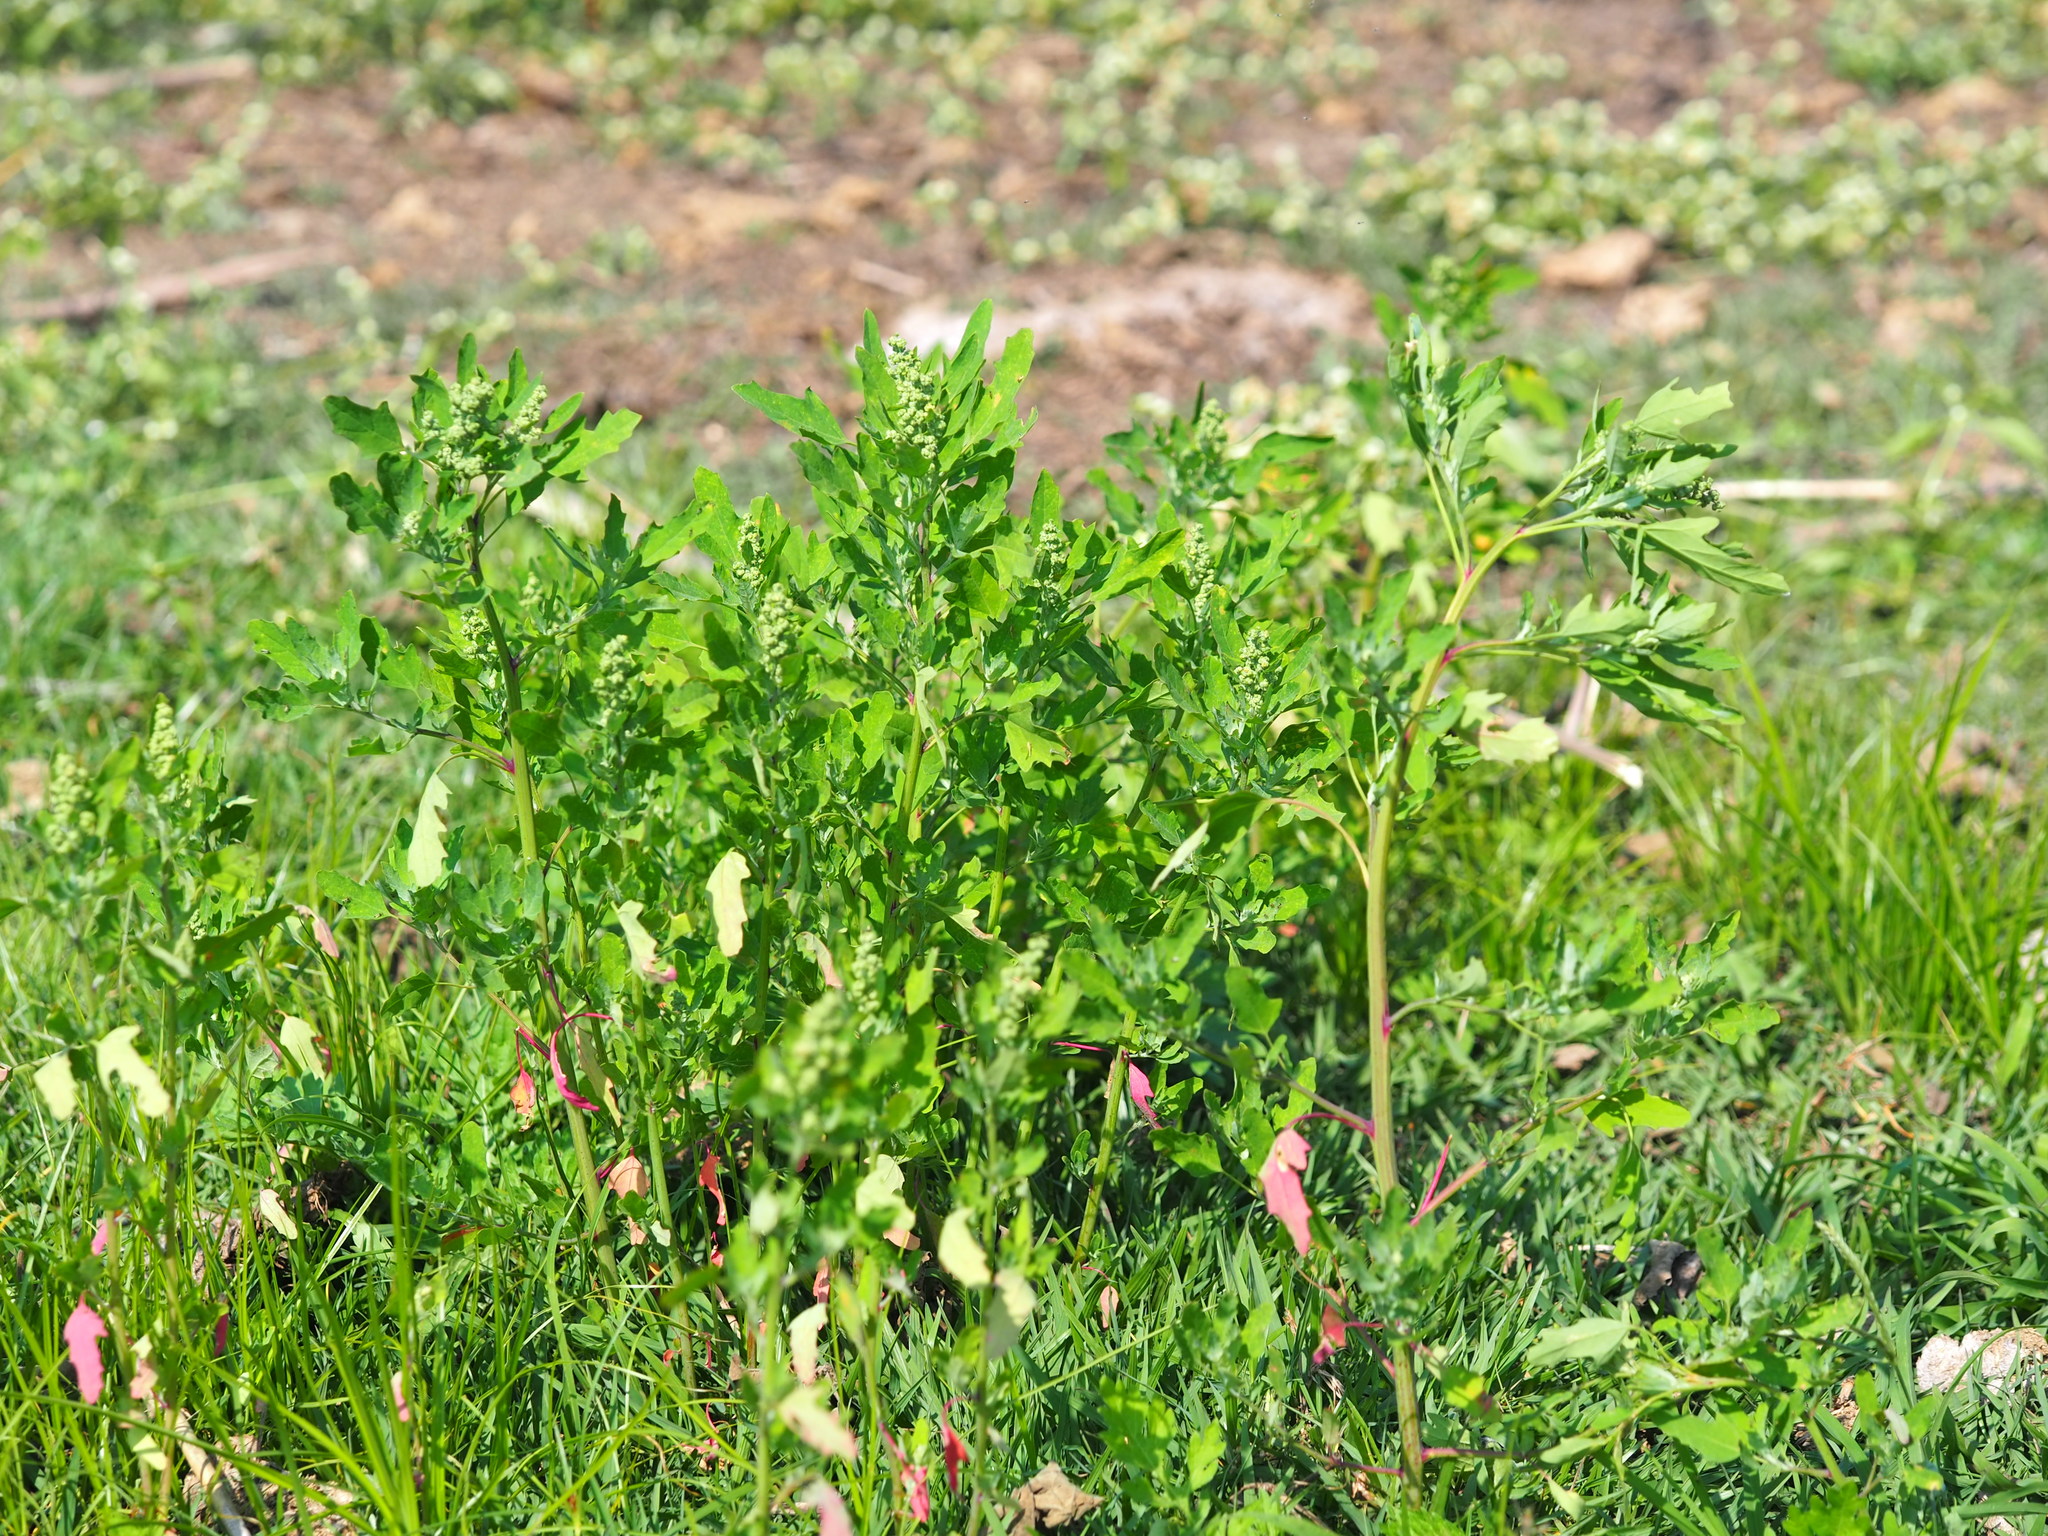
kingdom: Plantae
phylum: Tracheophyta
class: Magnoliopsida
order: Caryophyllales
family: Amaranthaceae
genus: Chenopodium
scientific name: Chenopodium ficifolium
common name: Fig-leaved goosefoot
